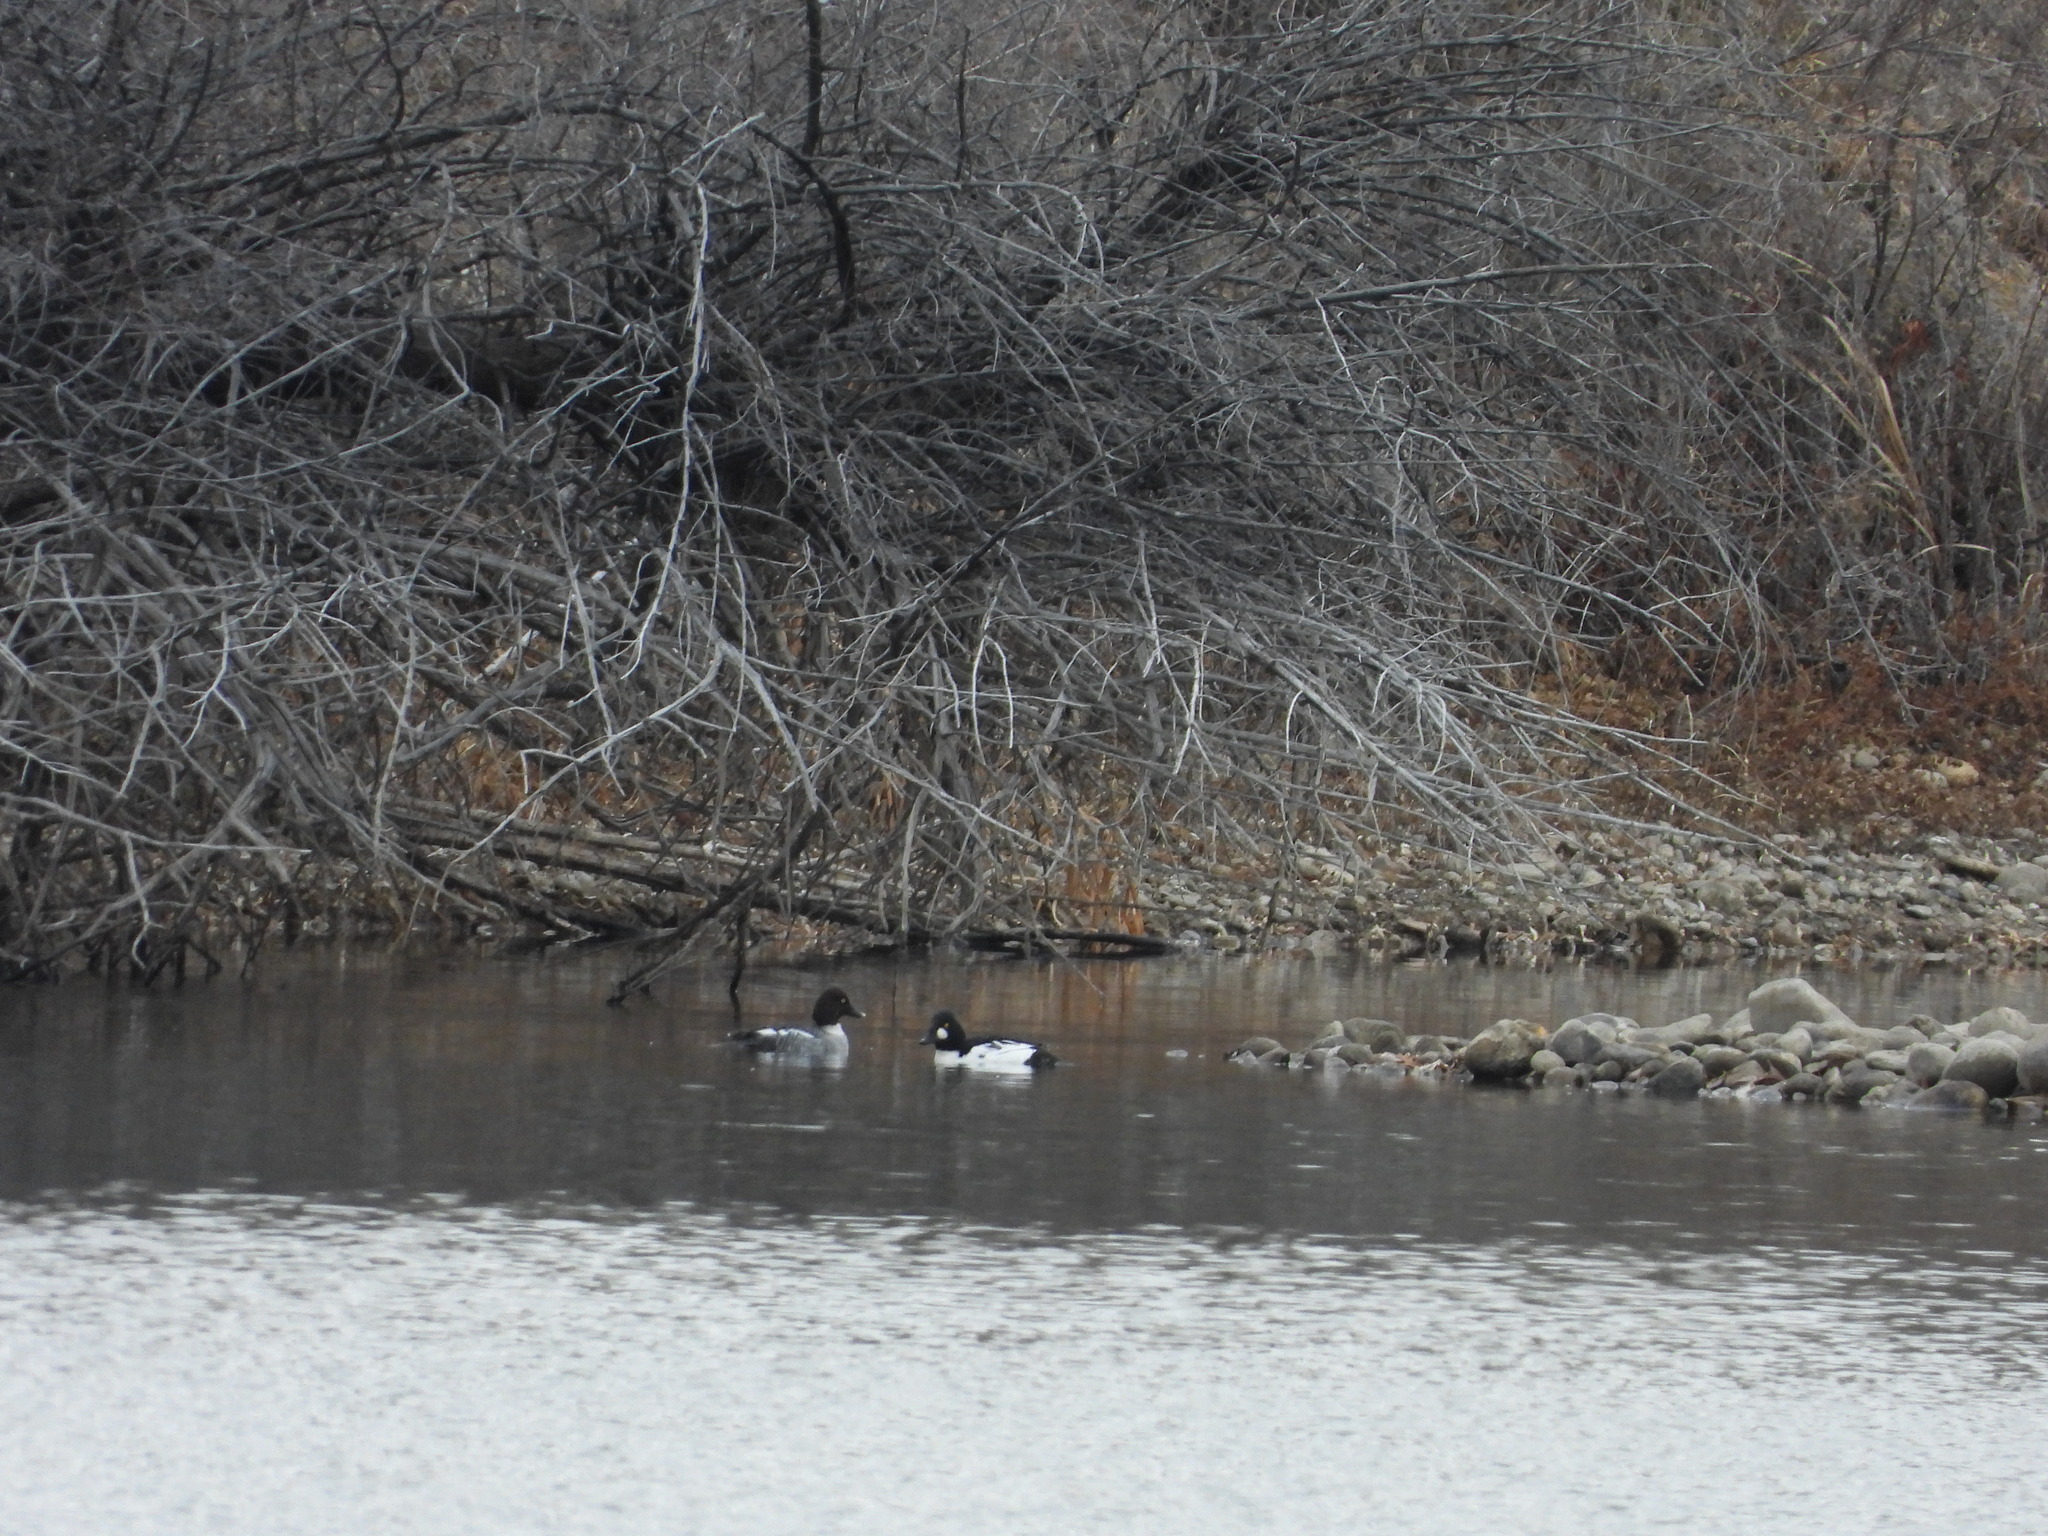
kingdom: Animalia
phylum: Chordata
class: Aves
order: Anseriformes
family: Anatidae
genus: Bucephala
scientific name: Bucephala clangula
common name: Common goldeneye
